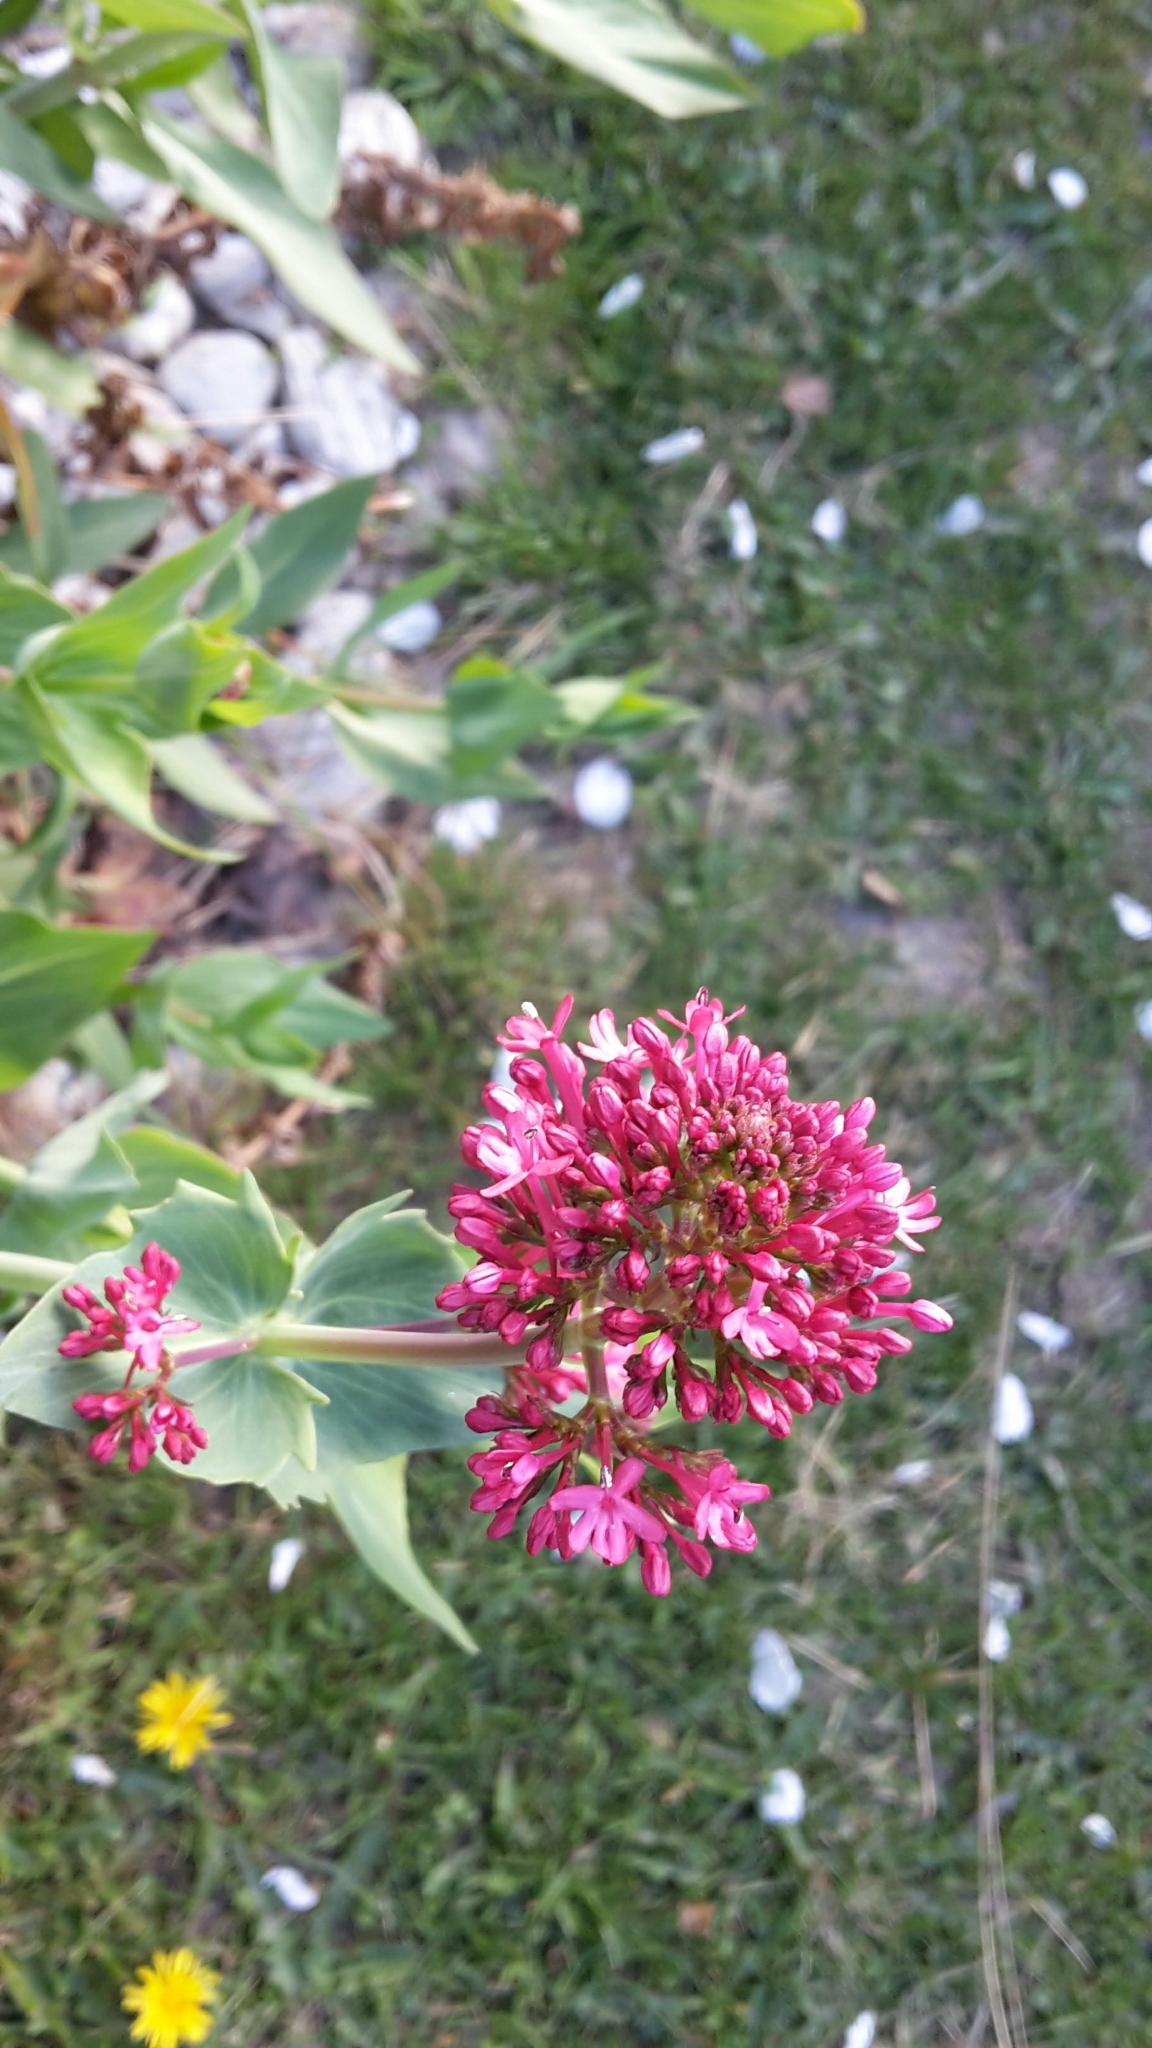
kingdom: Plantae
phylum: Tracheophyta
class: Magnoliopsida
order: Dipsacales
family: Caprifoliaceae
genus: Centranthus
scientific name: Centranthus ruber
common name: Red valerian
